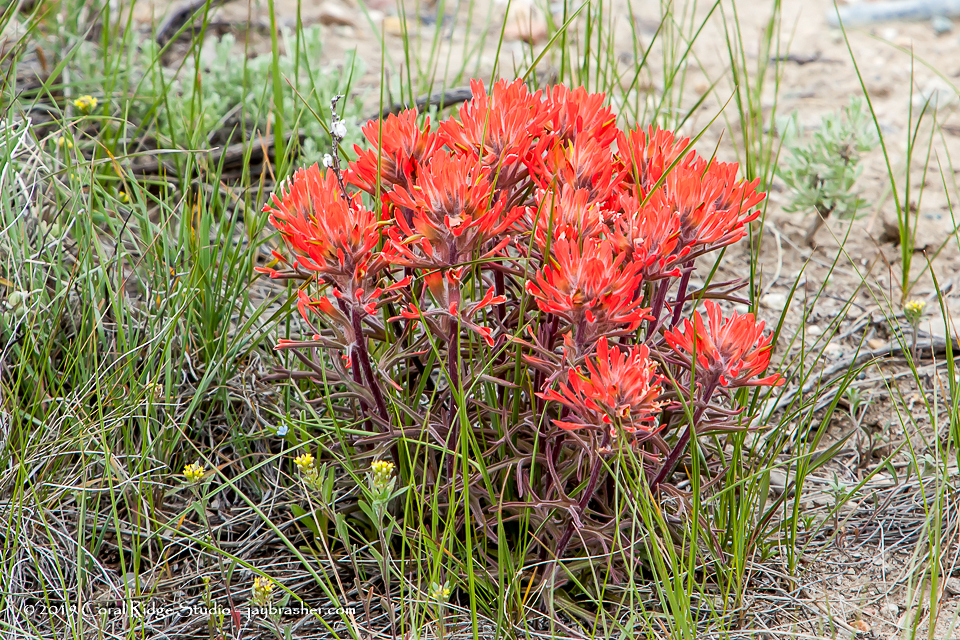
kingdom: Plantae
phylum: Tracheophyta
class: Magnoliopsida
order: Lamiales
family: Orobanchaceae
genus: Castilleja
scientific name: Castilleja chromosa
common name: Desert paintbrush
